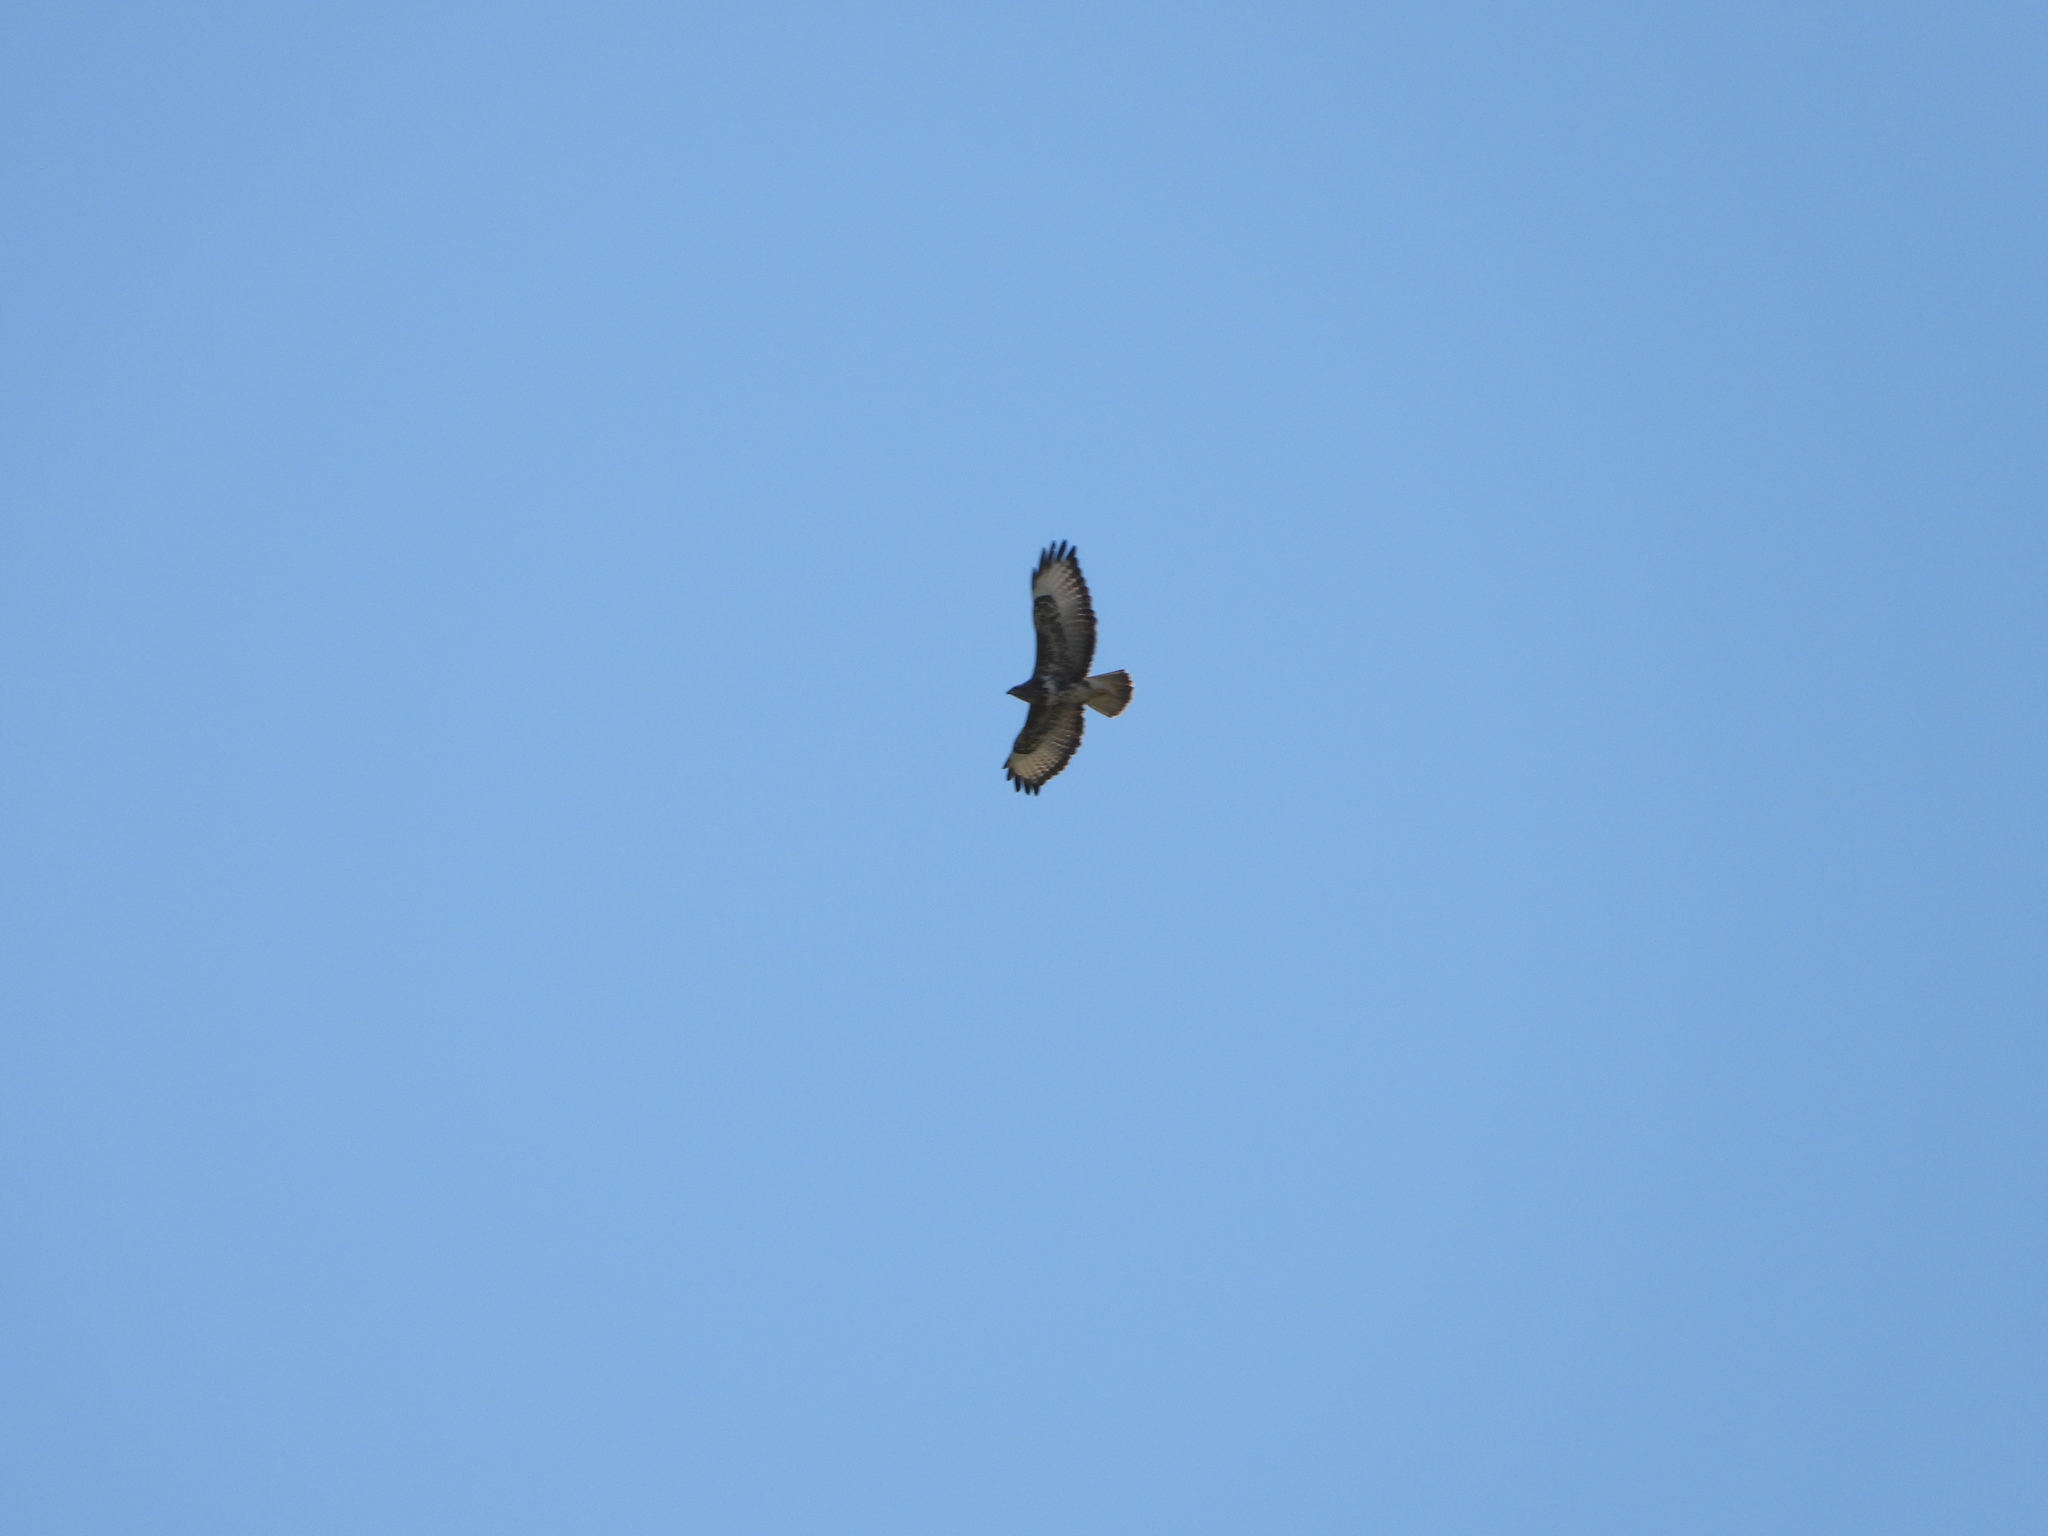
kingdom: Animalia
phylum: Chordata
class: Aves
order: Accipitriformes
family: Accipitridae
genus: Buteo
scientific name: Buteo buteo
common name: Common buzzard
